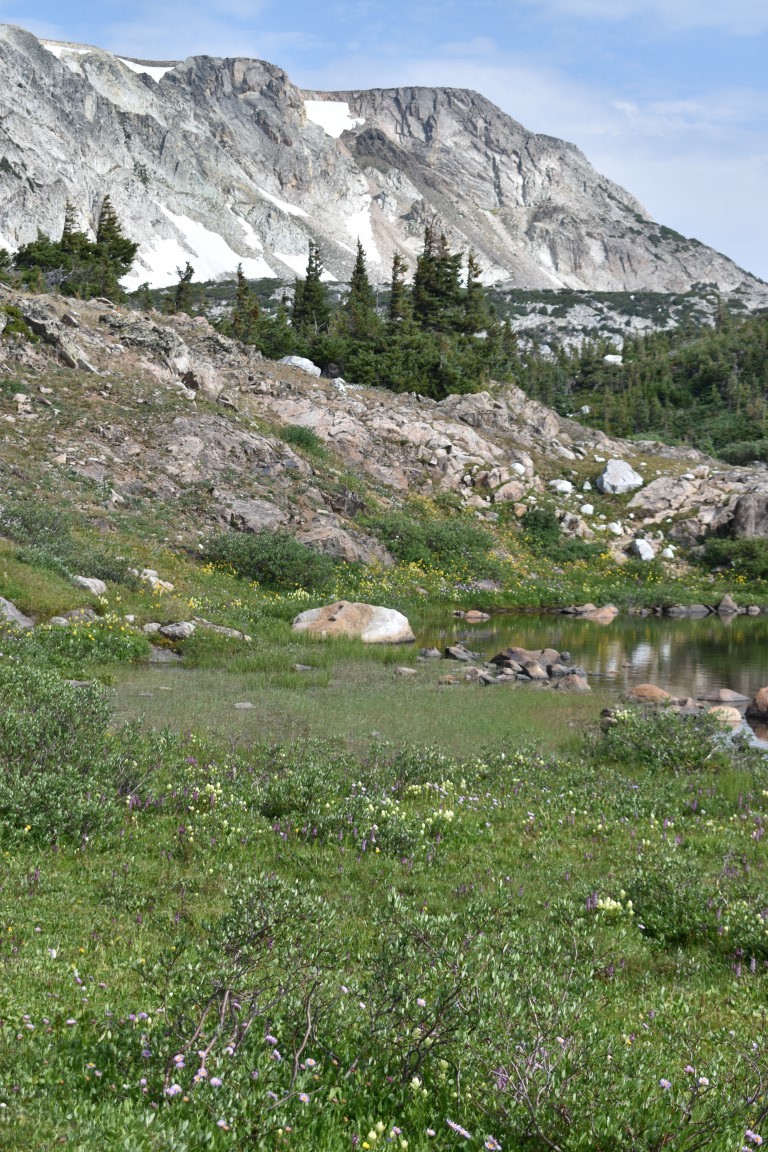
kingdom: Plantae
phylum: Tracheophyta
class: Magnoliopsida
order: Lamiales
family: Orobanchaceae
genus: Castilleja
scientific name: Castilleja septentrionalis
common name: Northeastern paintbrush
